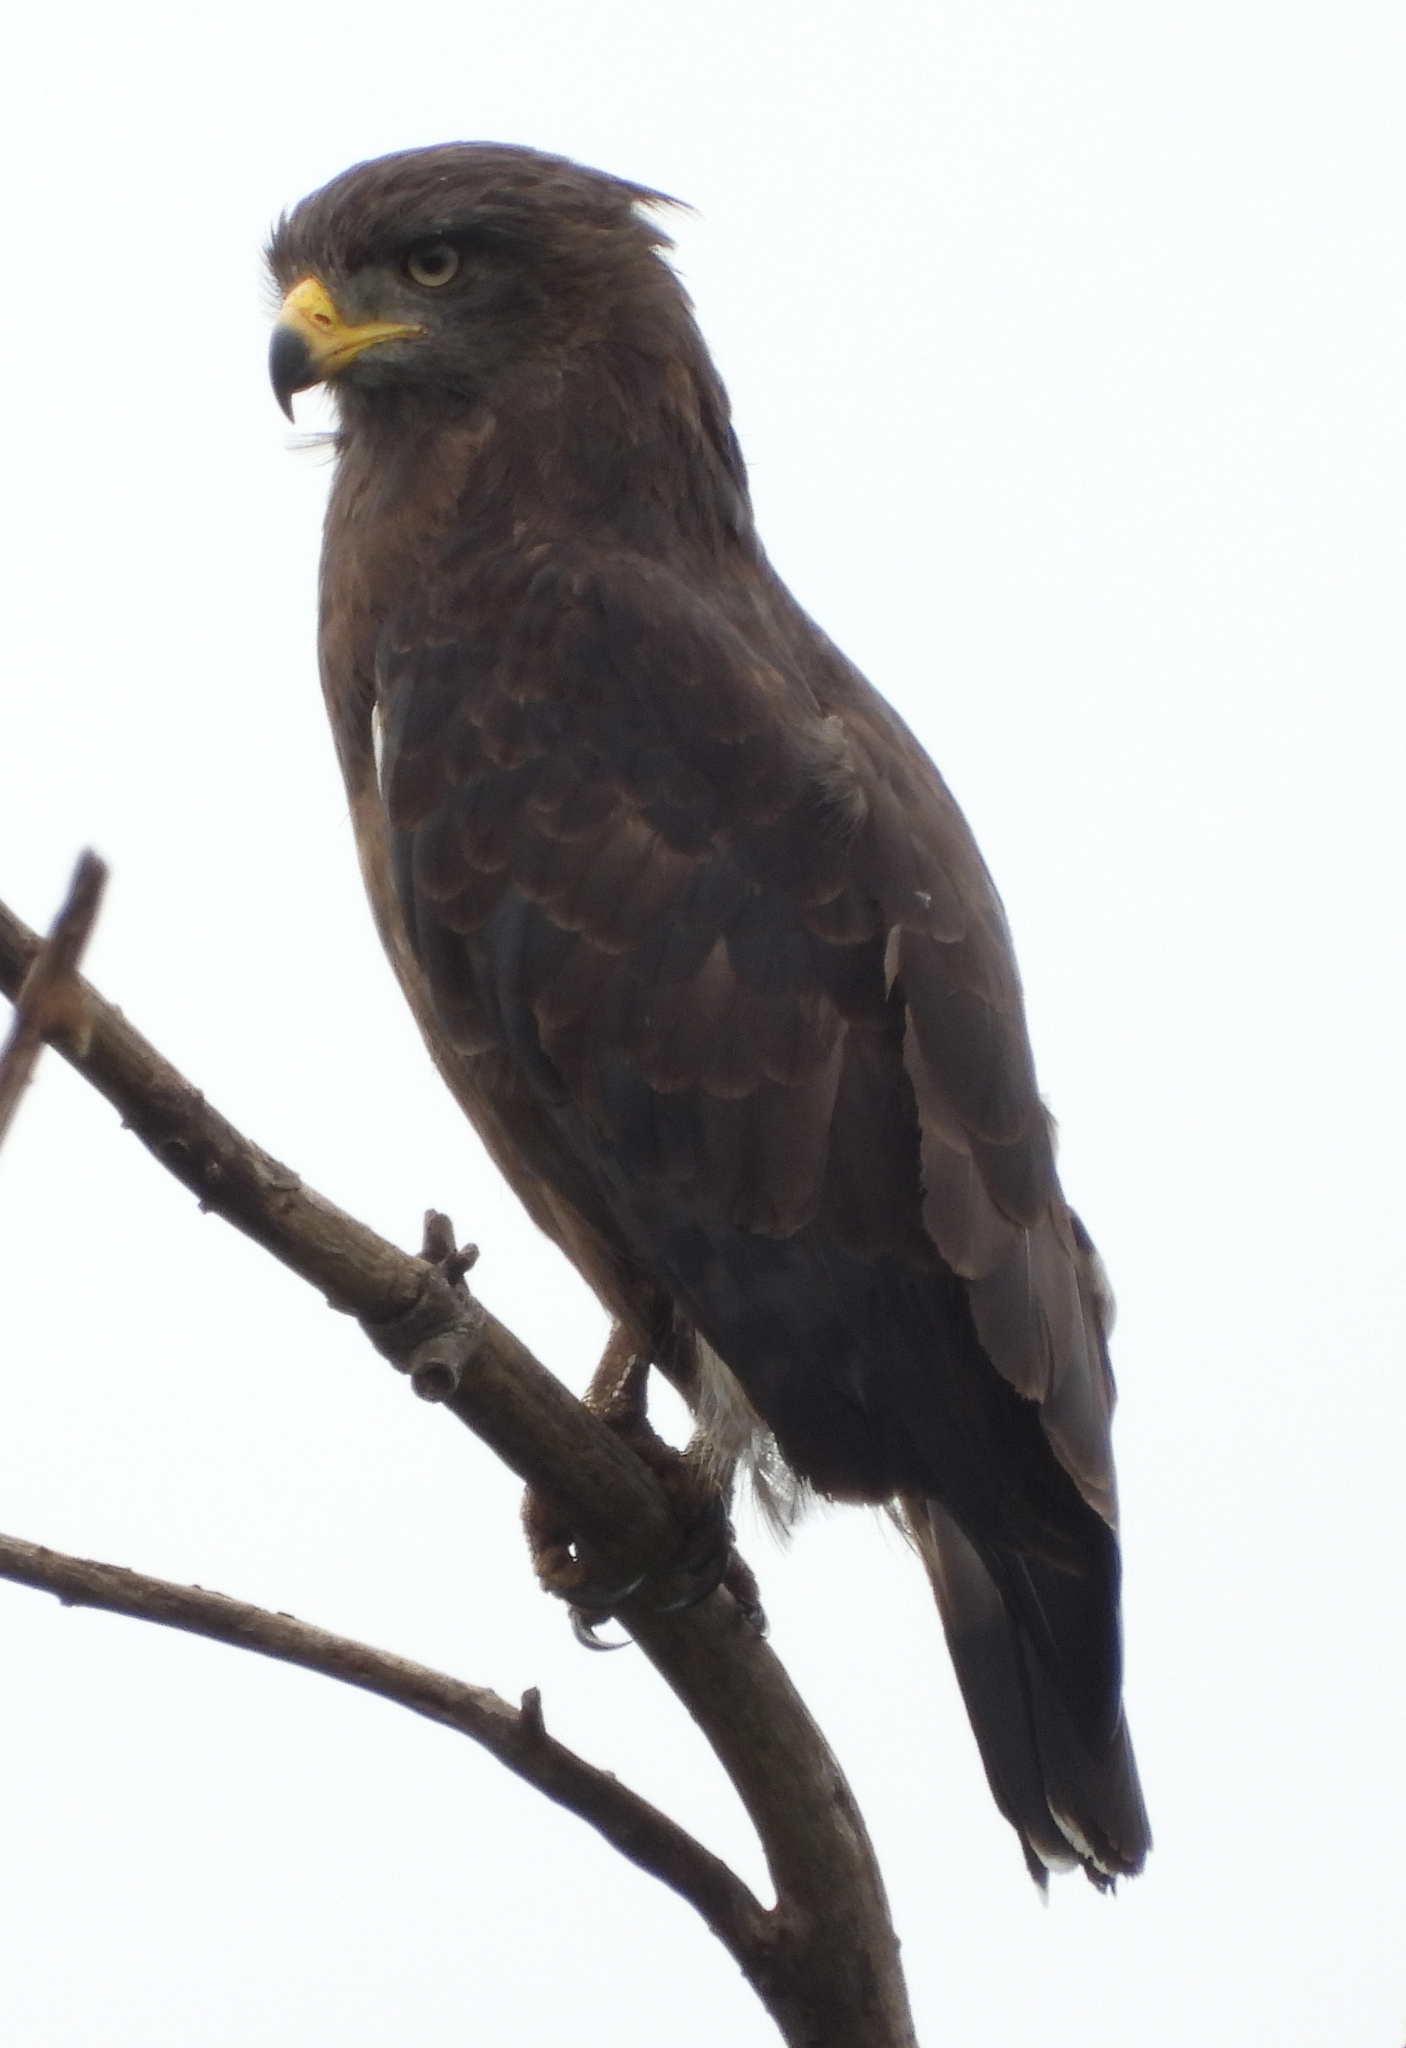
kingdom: Animalia
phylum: Chordata
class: Aves
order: Accipitriformes
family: Accipitridae
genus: Circaetus
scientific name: Circaetus cinerascens
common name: Western banded snake eagle
